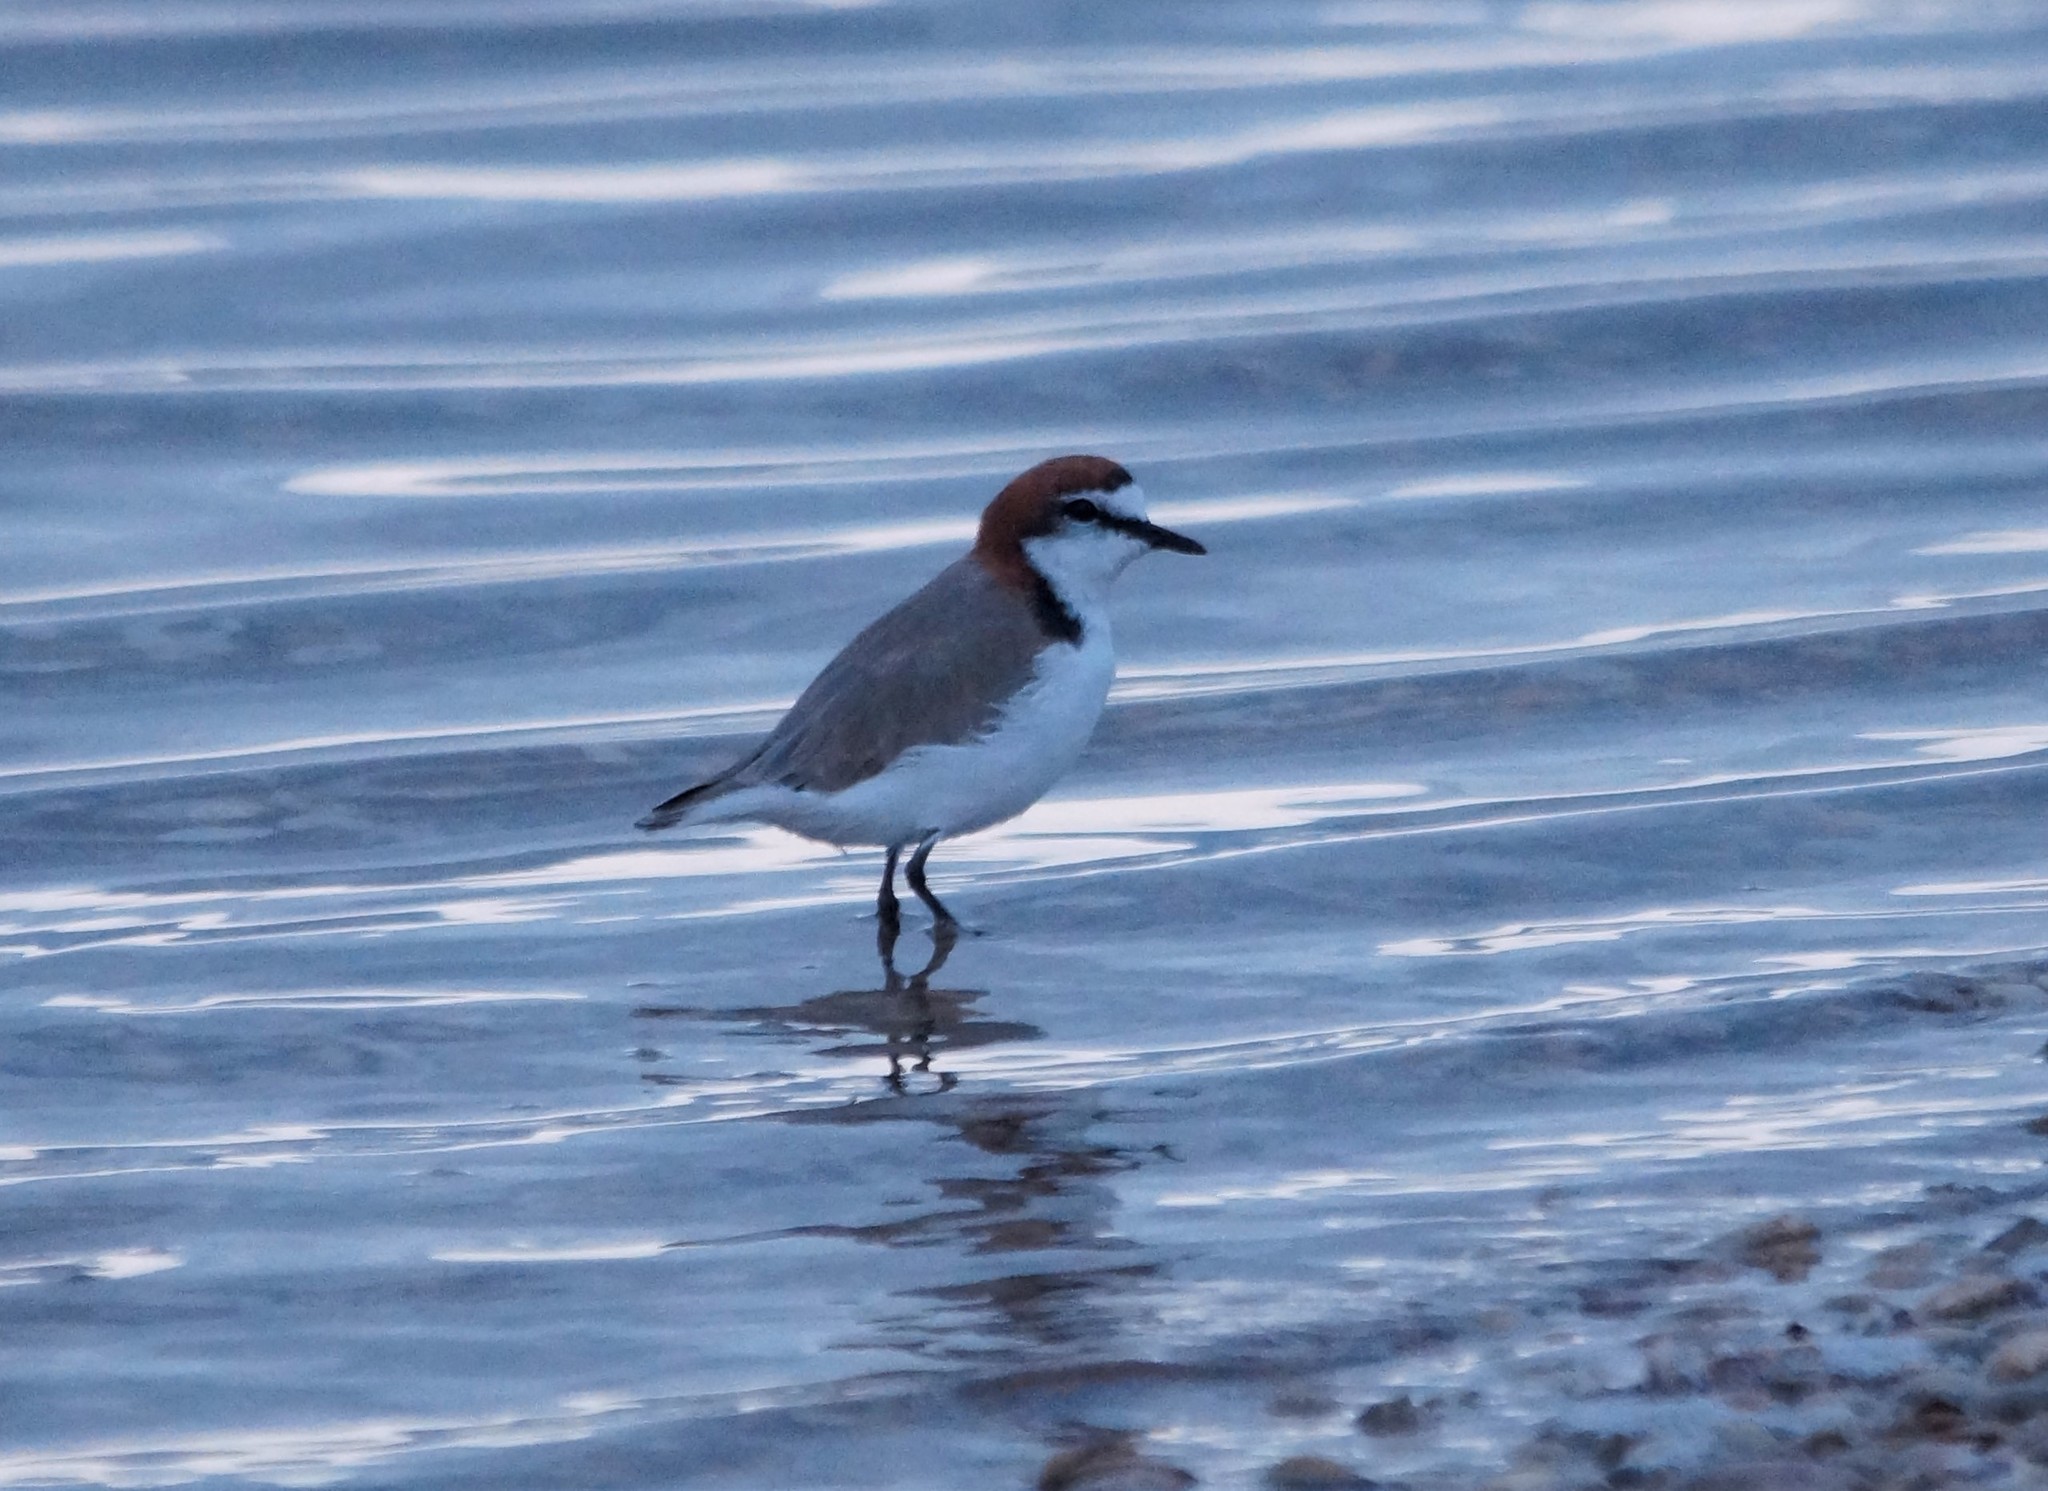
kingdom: Animalia
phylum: Chordata
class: Aves
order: Charadriiformes
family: Charadriidae
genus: Anarhynchus
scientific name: Anarhynchus
